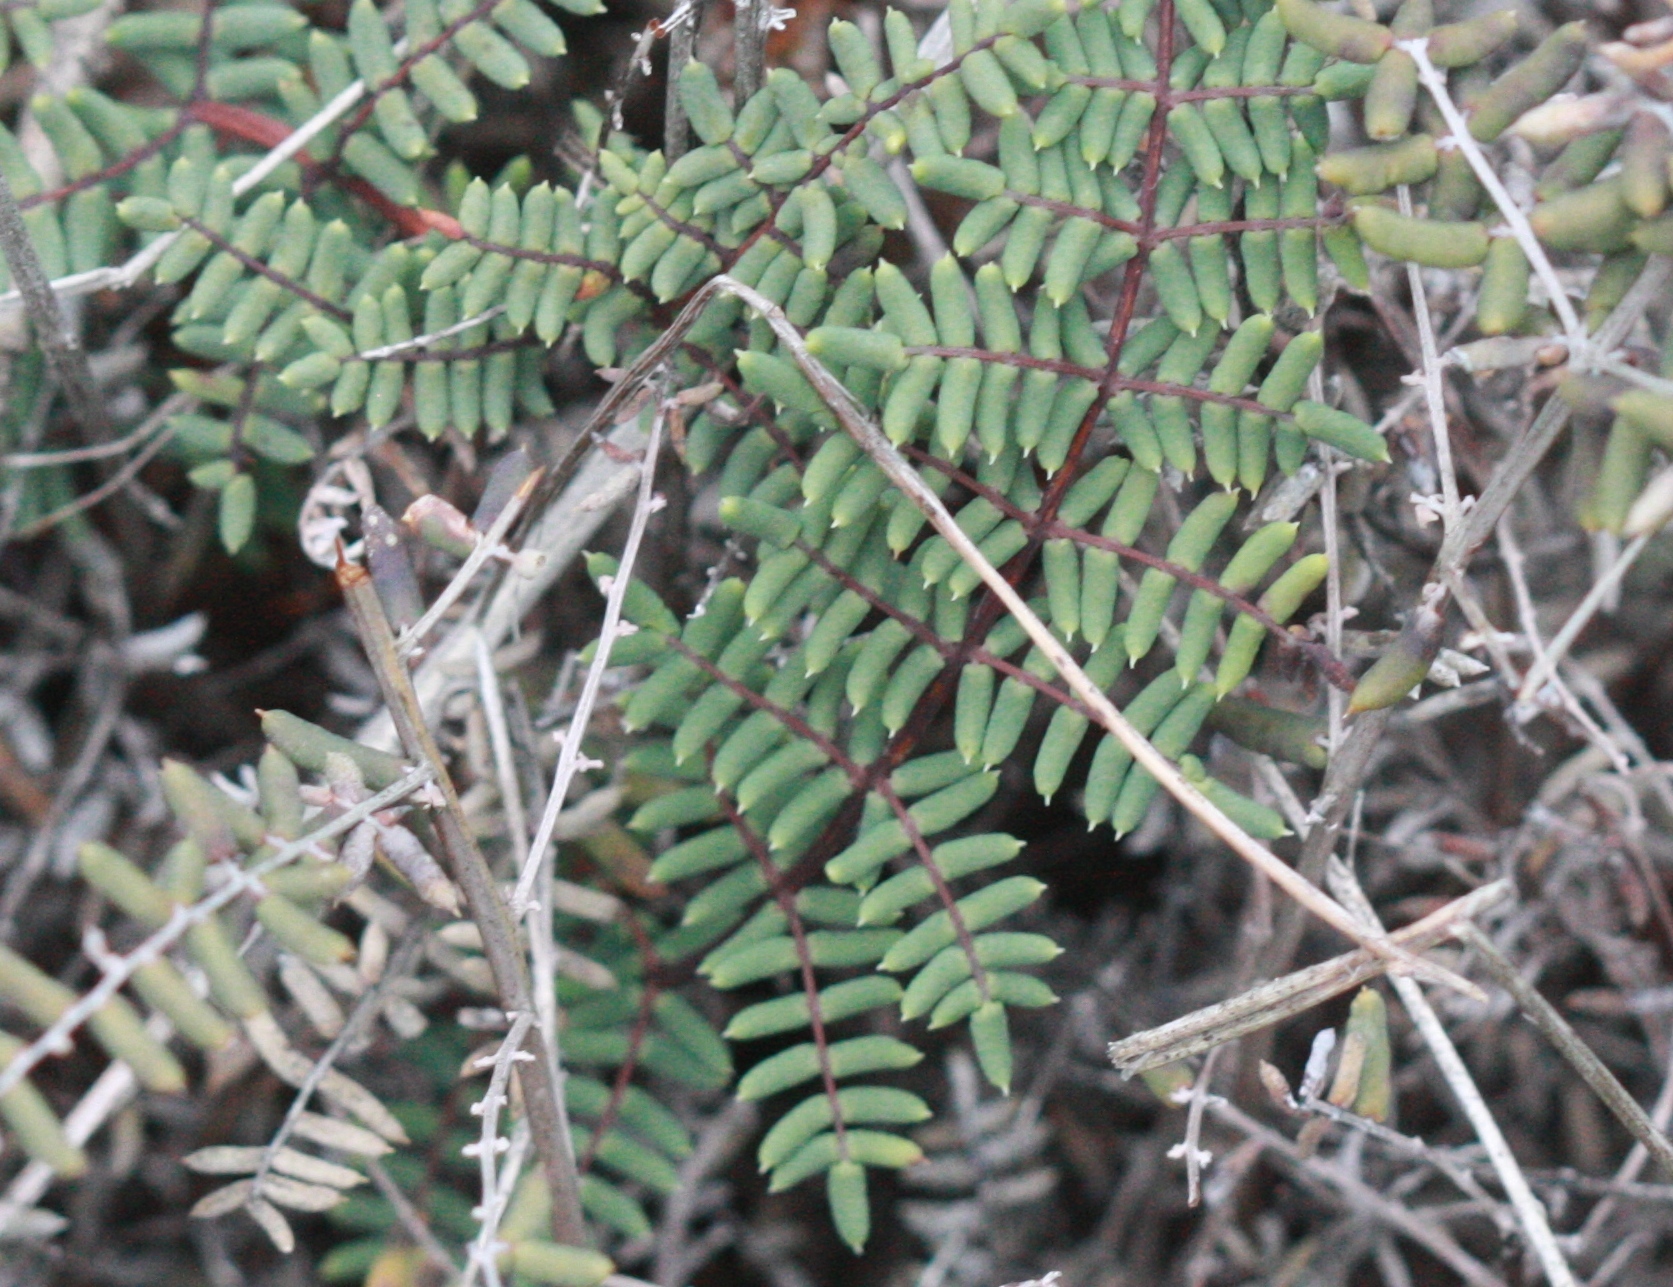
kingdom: Plantae
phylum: Tracheophyta
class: Polypodiopsida
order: Polypodiales
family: Pteridaceae
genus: Pellaea
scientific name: Pellaea mucronata
